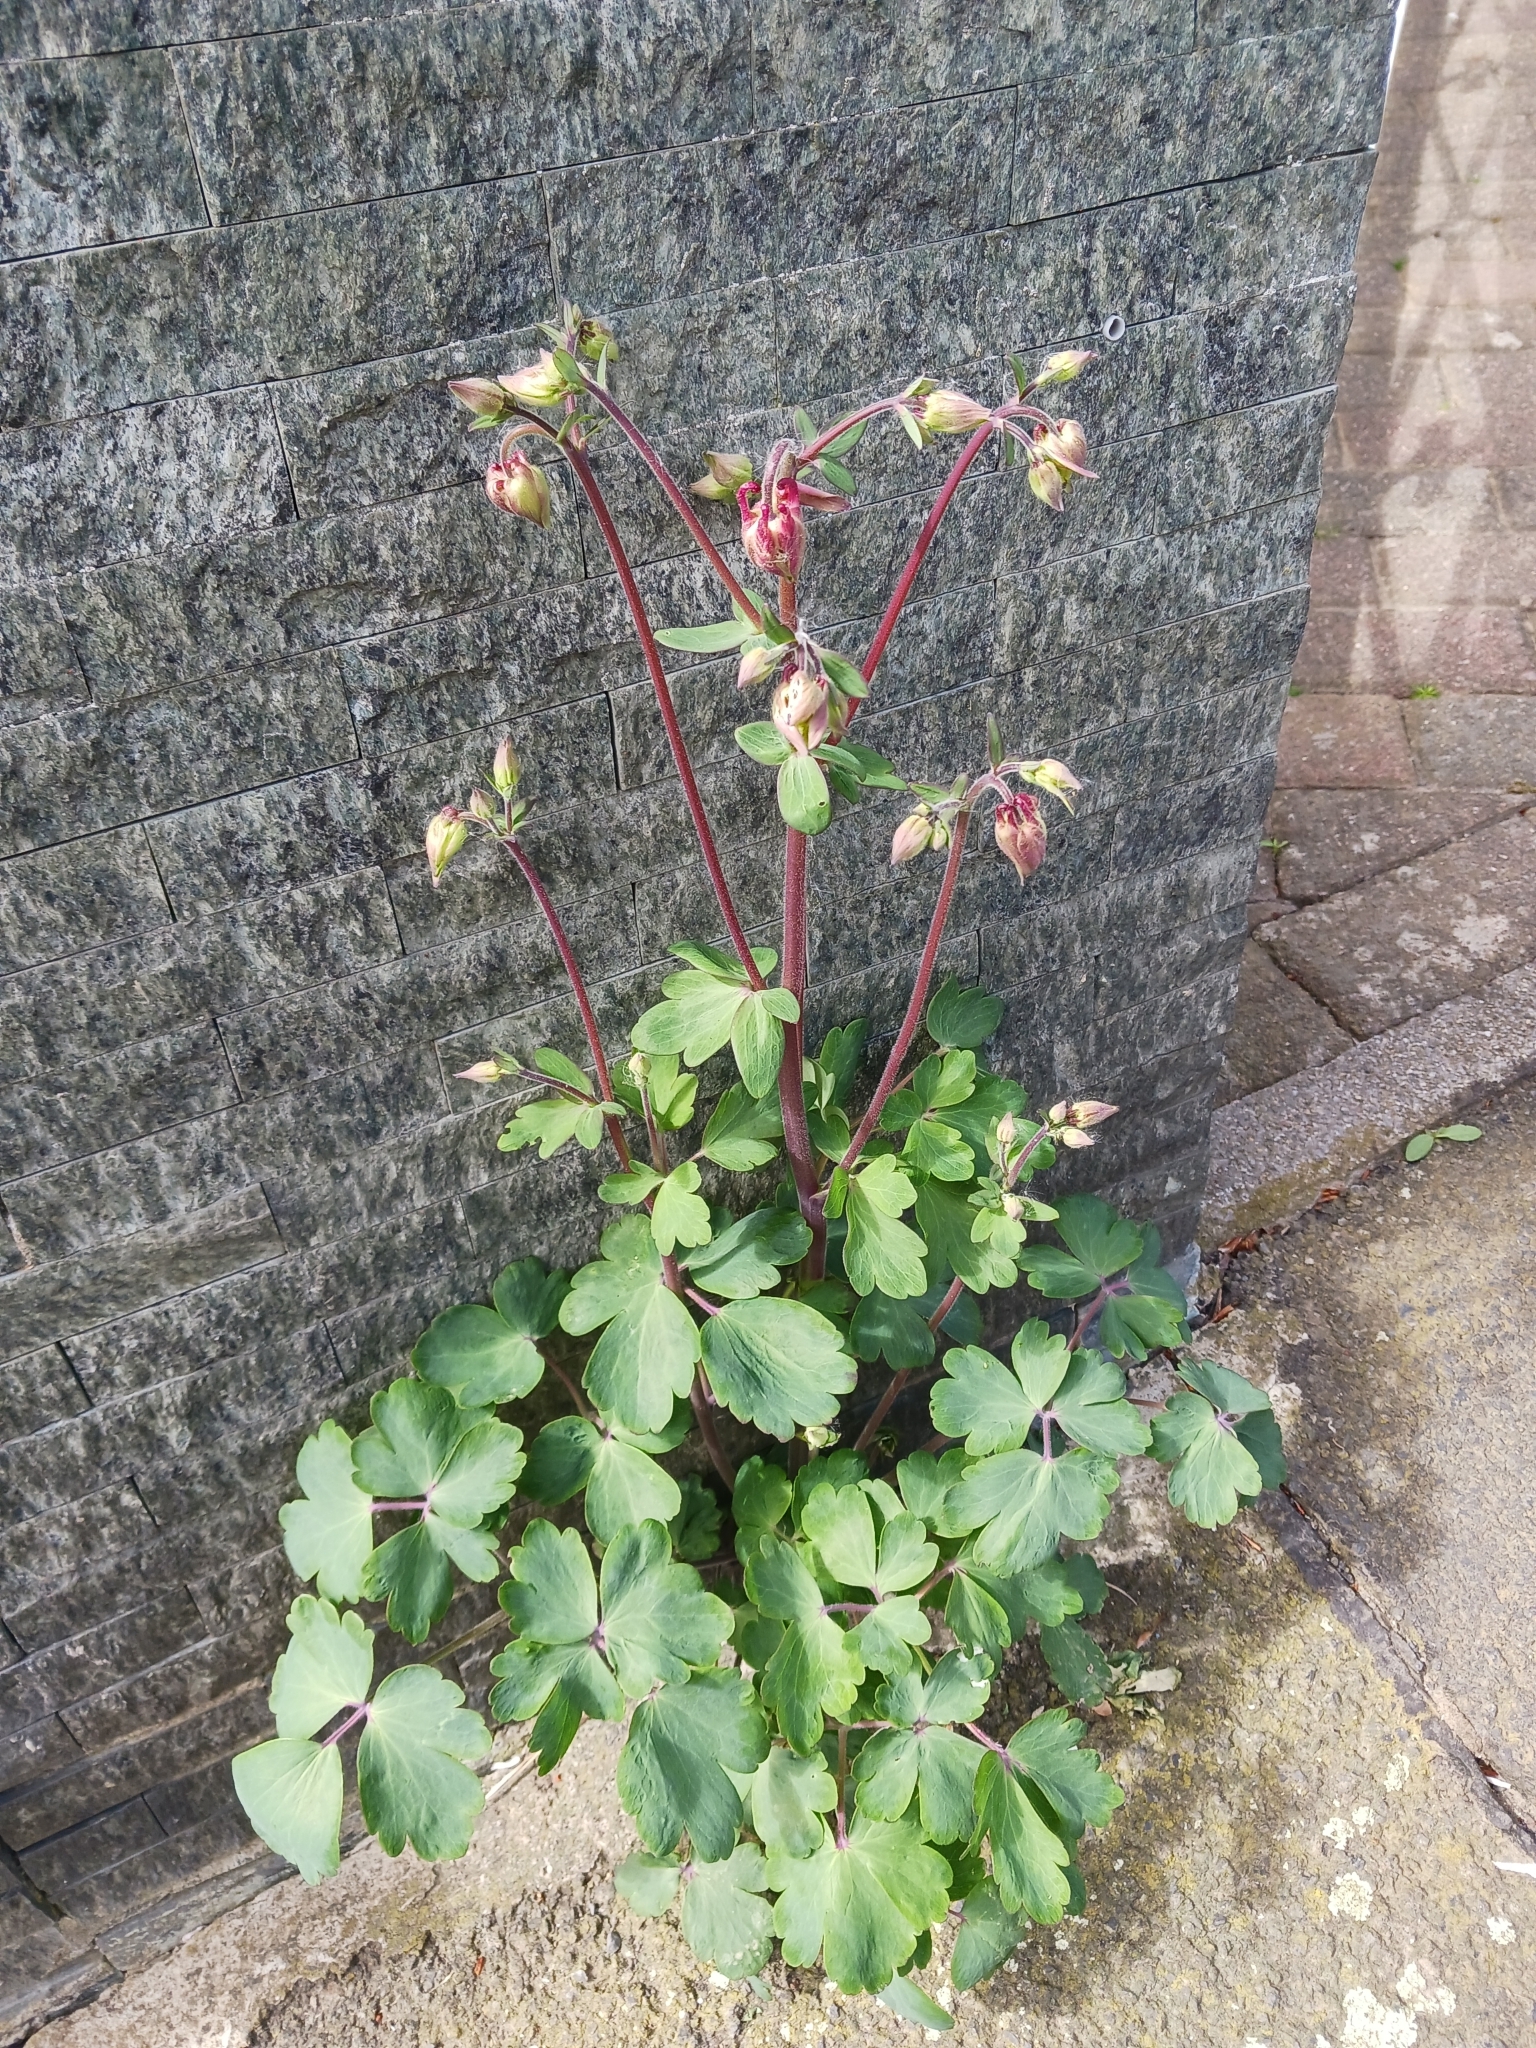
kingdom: Plantae
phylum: Tracheophyta
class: Magnoliopsida
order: Ranunculales
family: Ranunculaceae
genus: Aquilegia
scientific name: Aquilegia vulgaris
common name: Columbine
